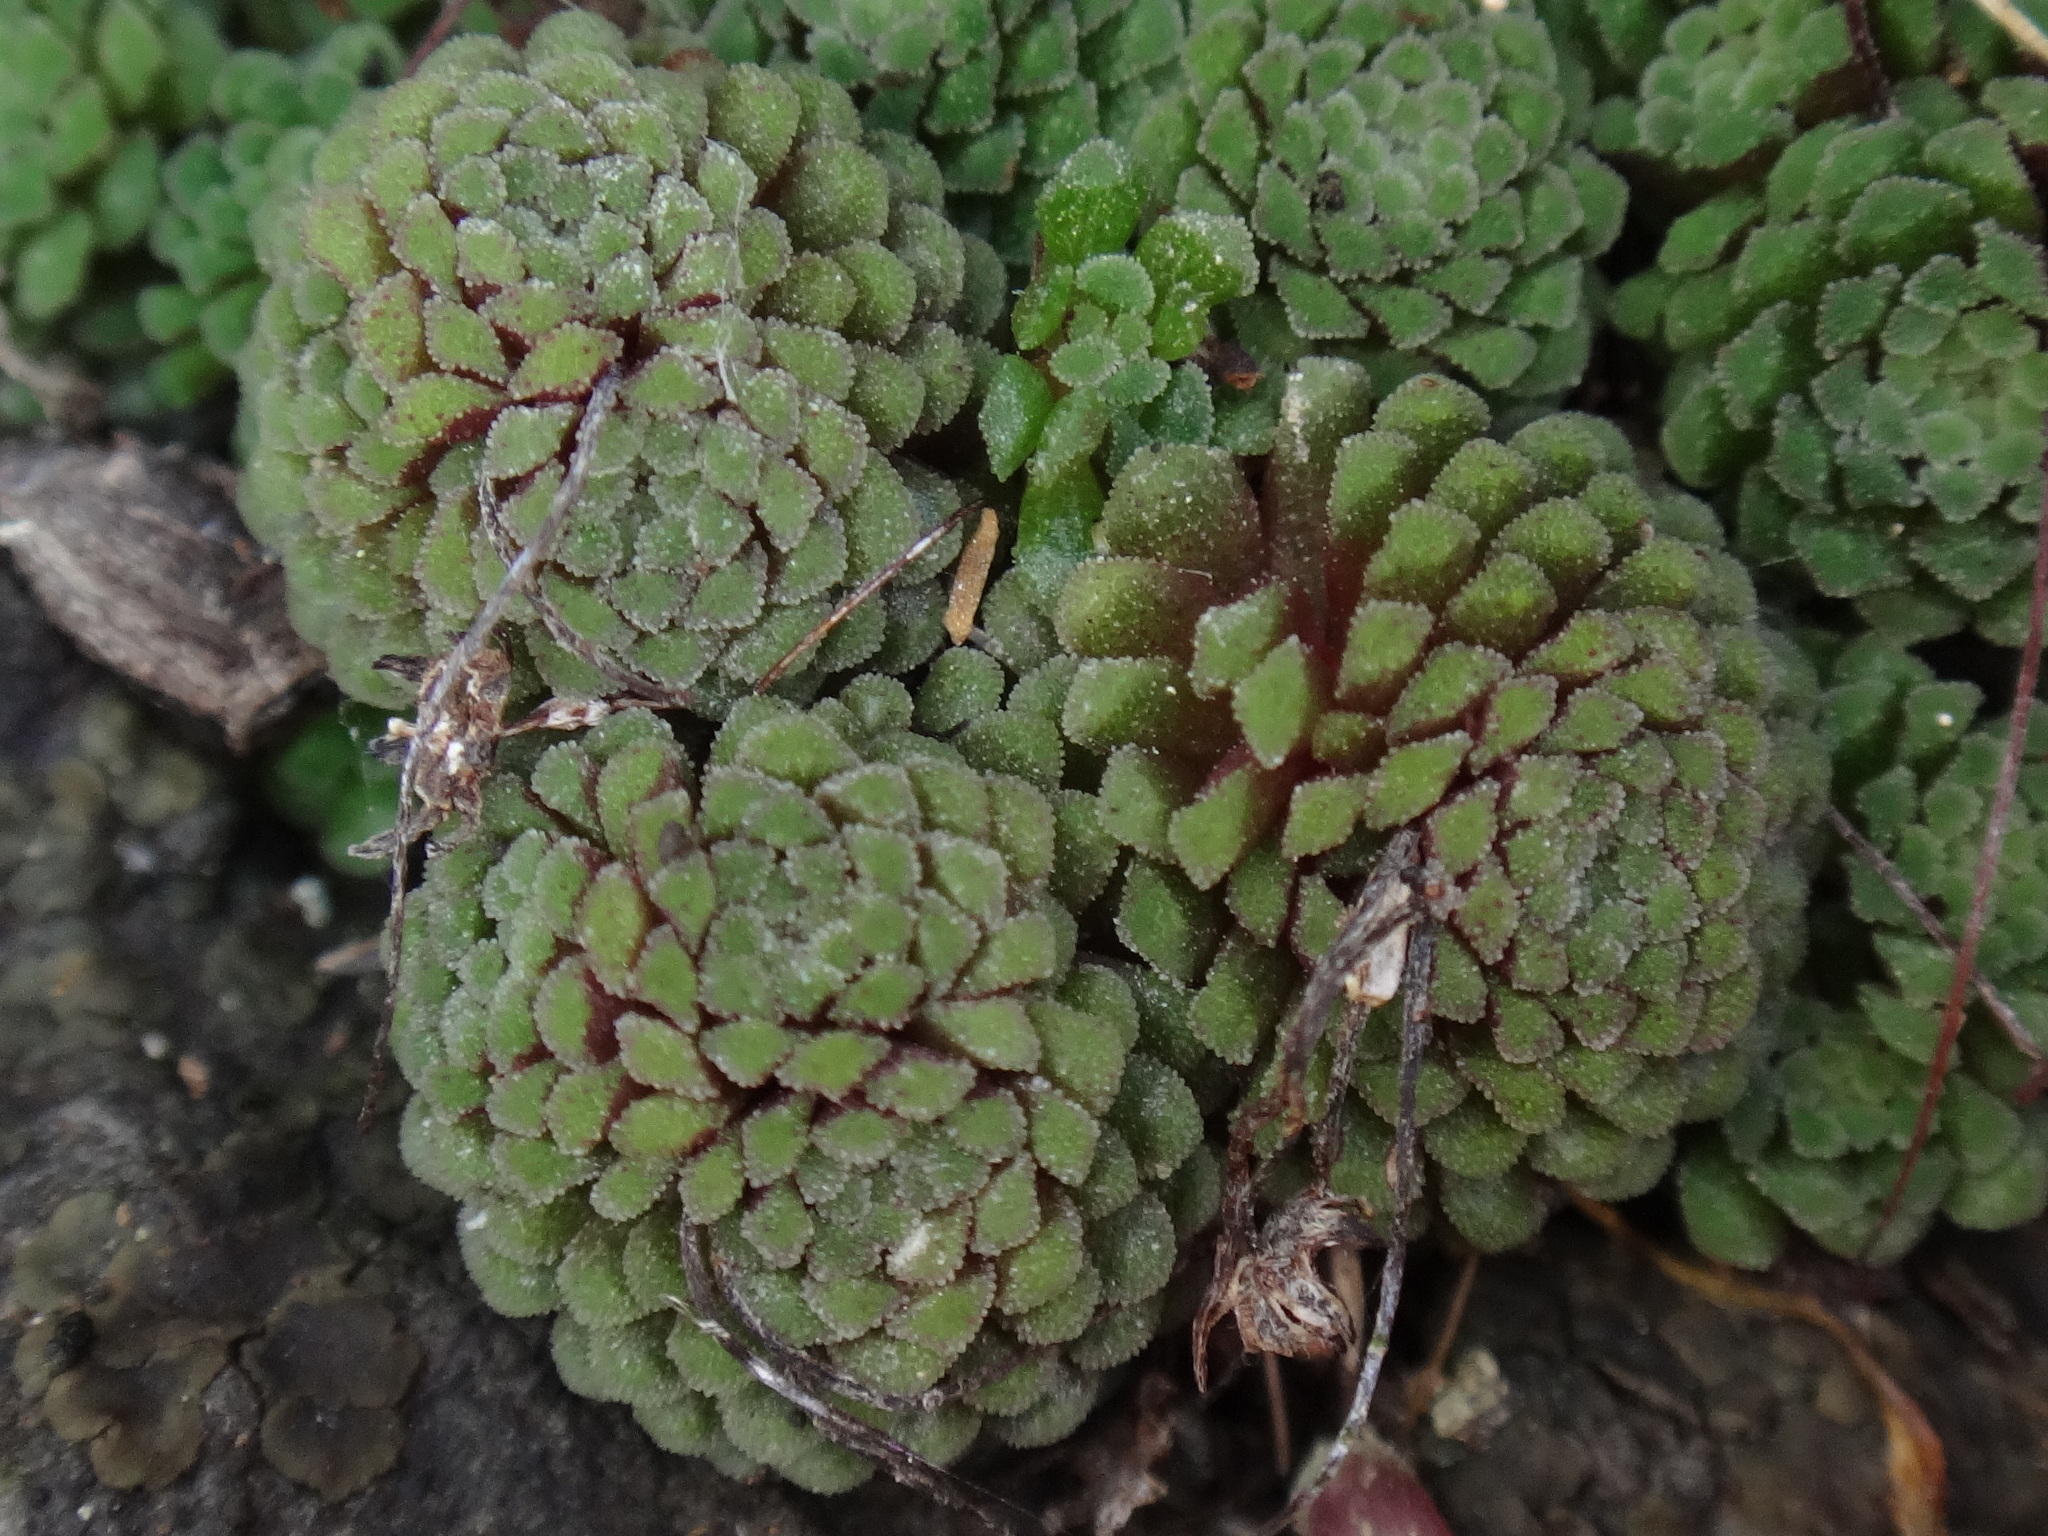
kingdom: Plantae
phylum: Tracheophyta
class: Magnoliopsida
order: Saxifragales
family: Crassulaceae
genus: Monanthes
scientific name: Monanthes polyphylla
